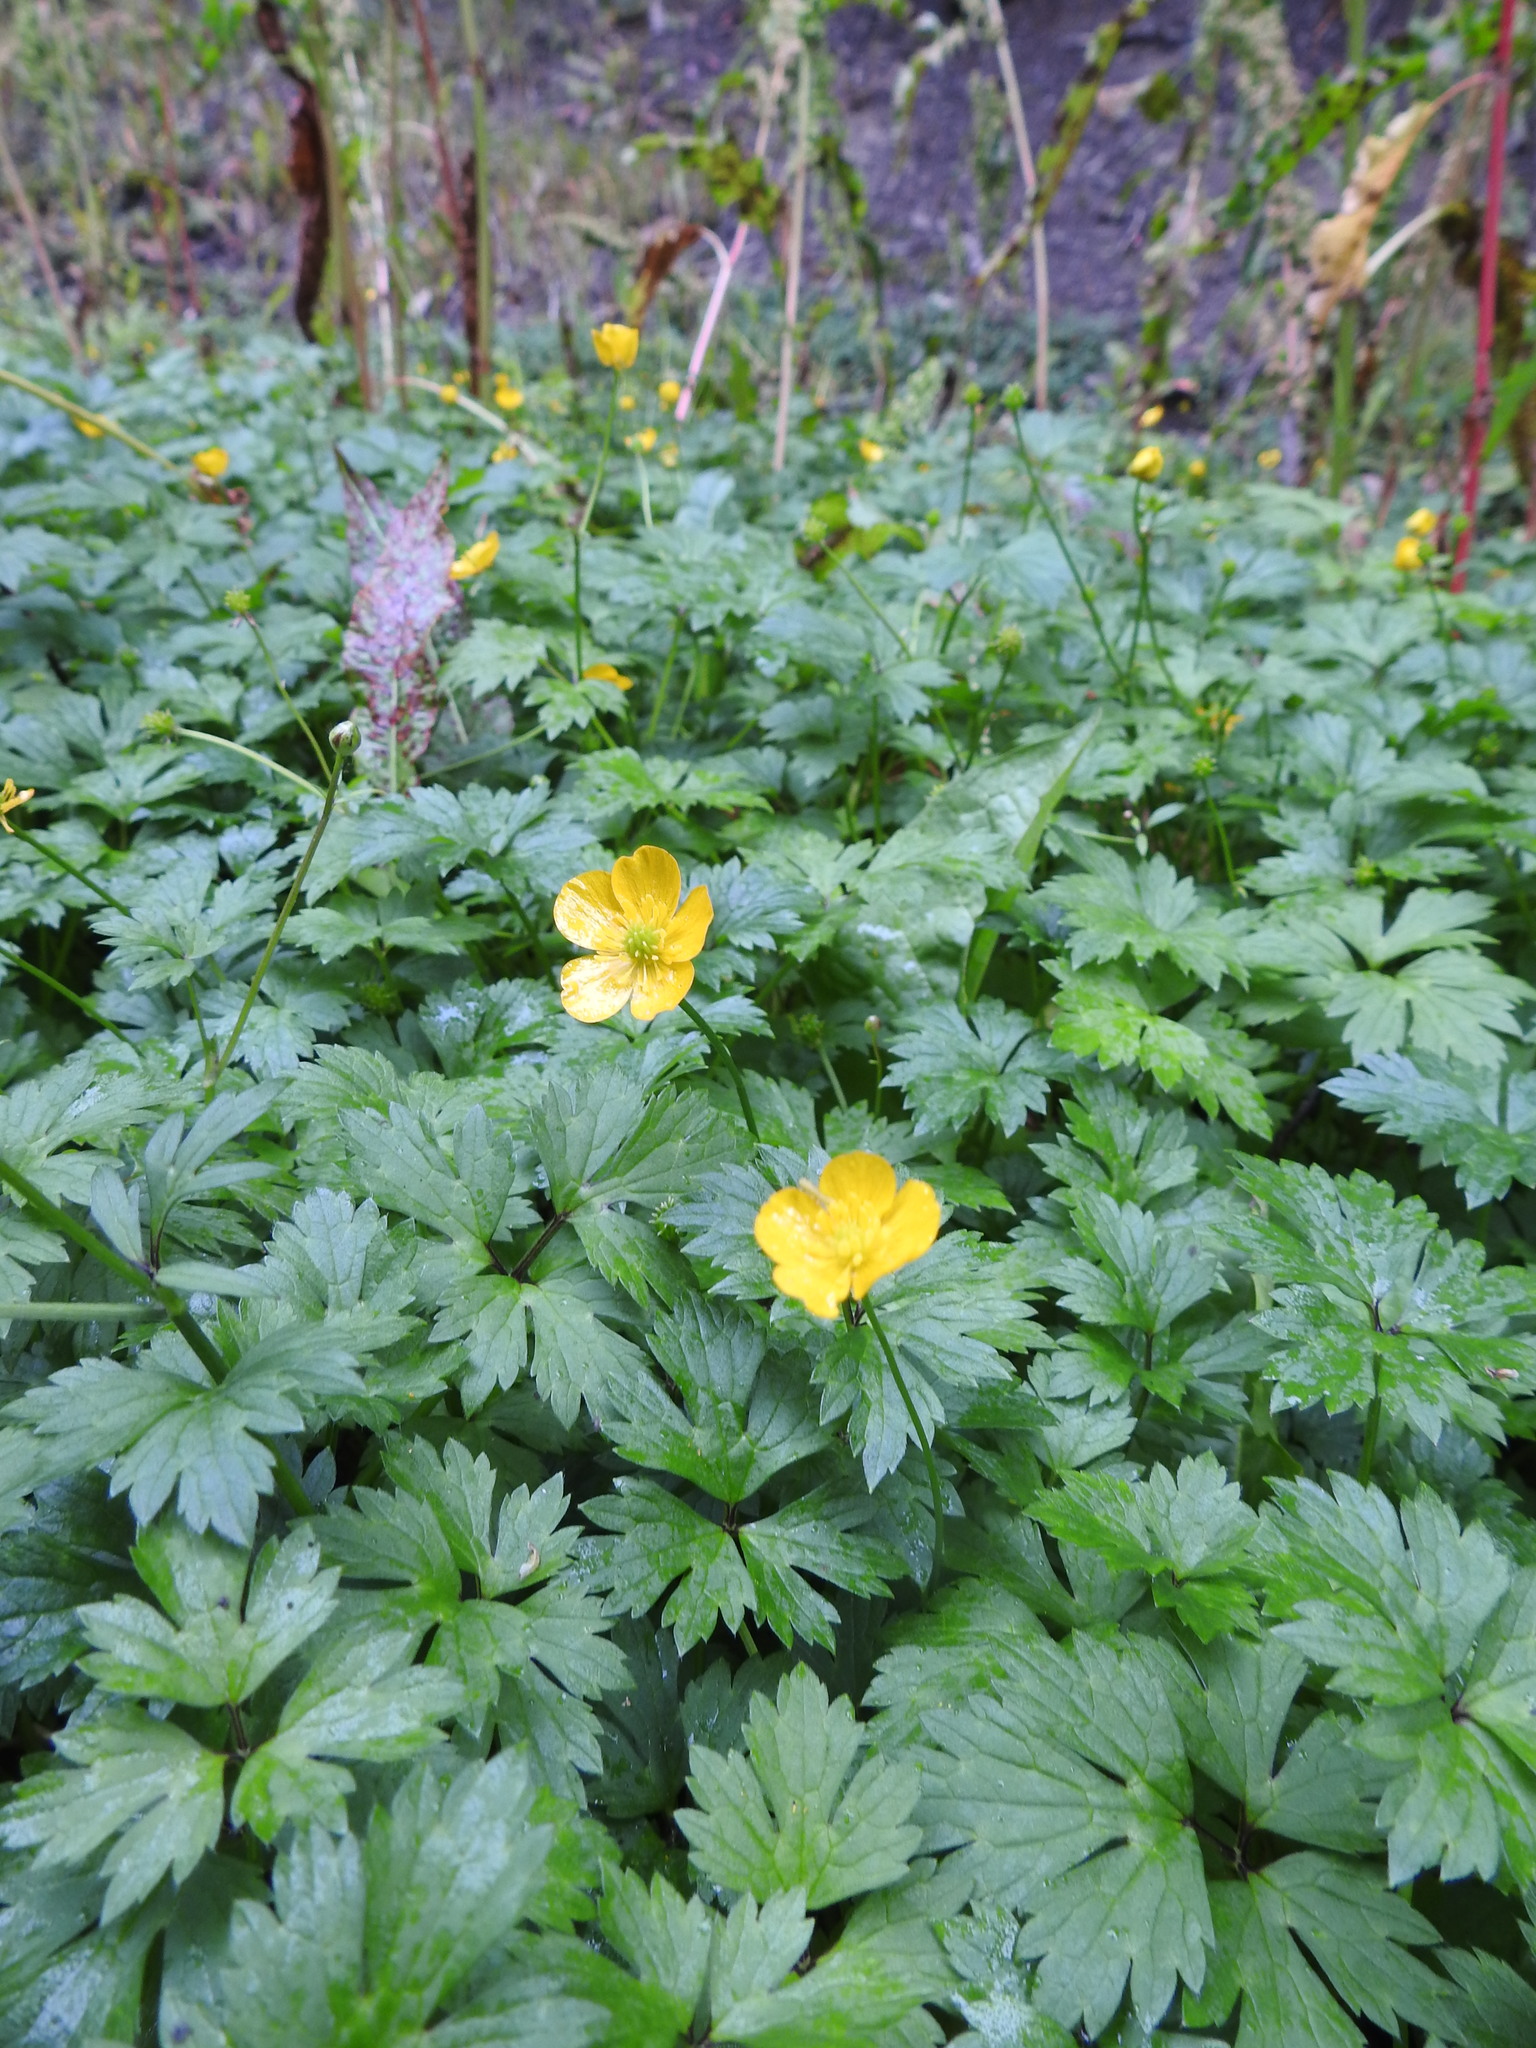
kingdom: Plantae
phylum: Tracheophyta
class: Magnoliopsida
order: Ranunculales
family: Ranunculaceae
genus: Ranunculus
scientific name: Ranunculus repens
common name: Creeping buttercup
